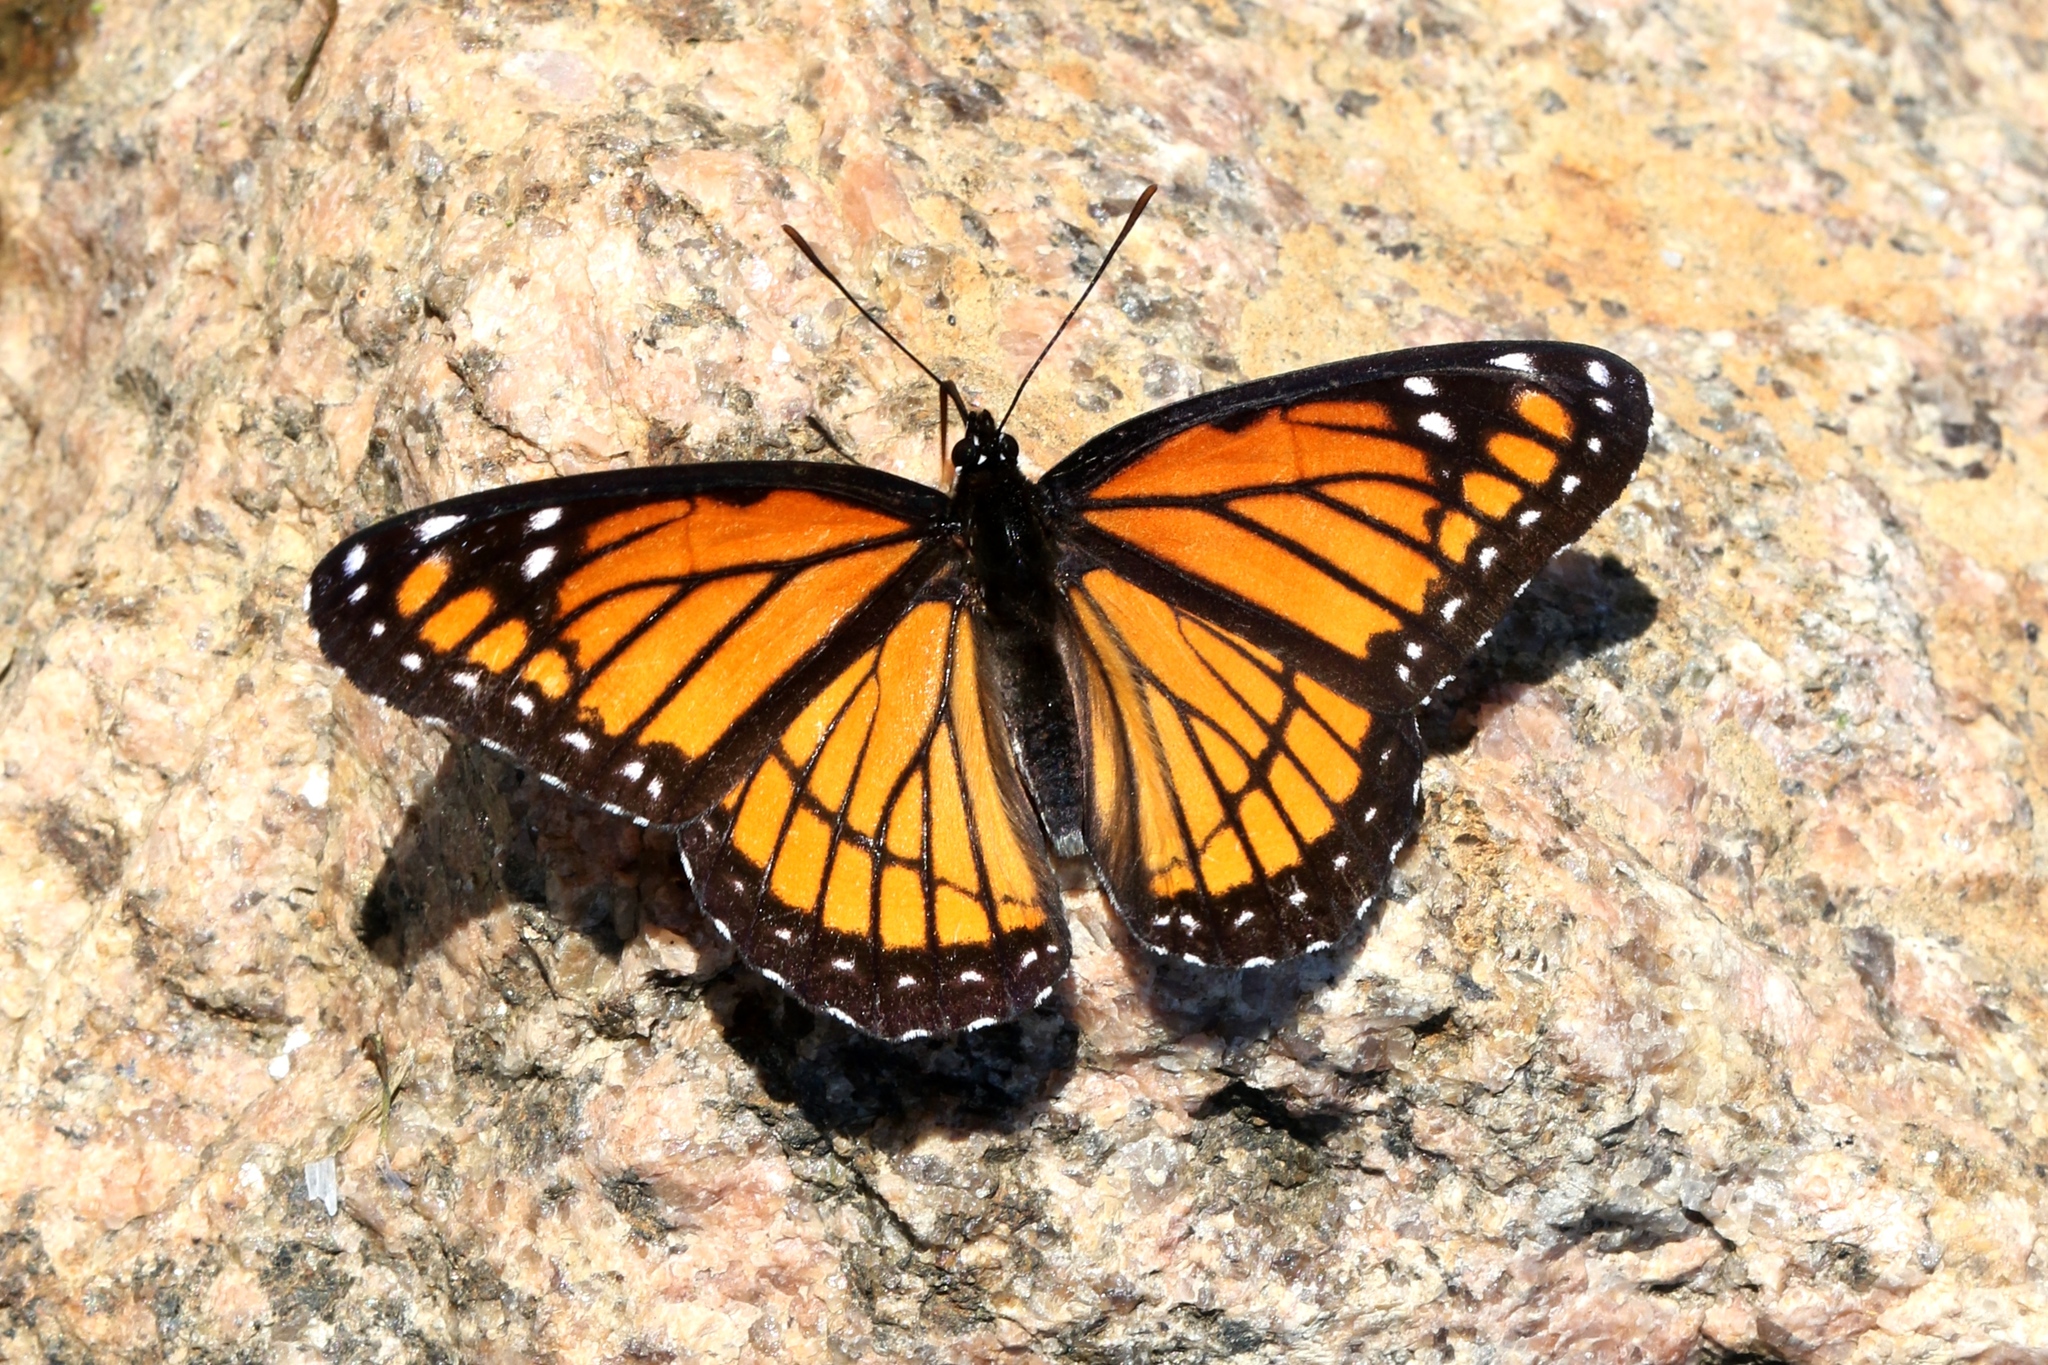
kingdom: Animalia
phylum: Arthropoda
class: Insecta
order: Lepidoptera
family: Nymphalidae
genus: Limenitis
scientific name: Limenitis archippus
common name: Viceroy
